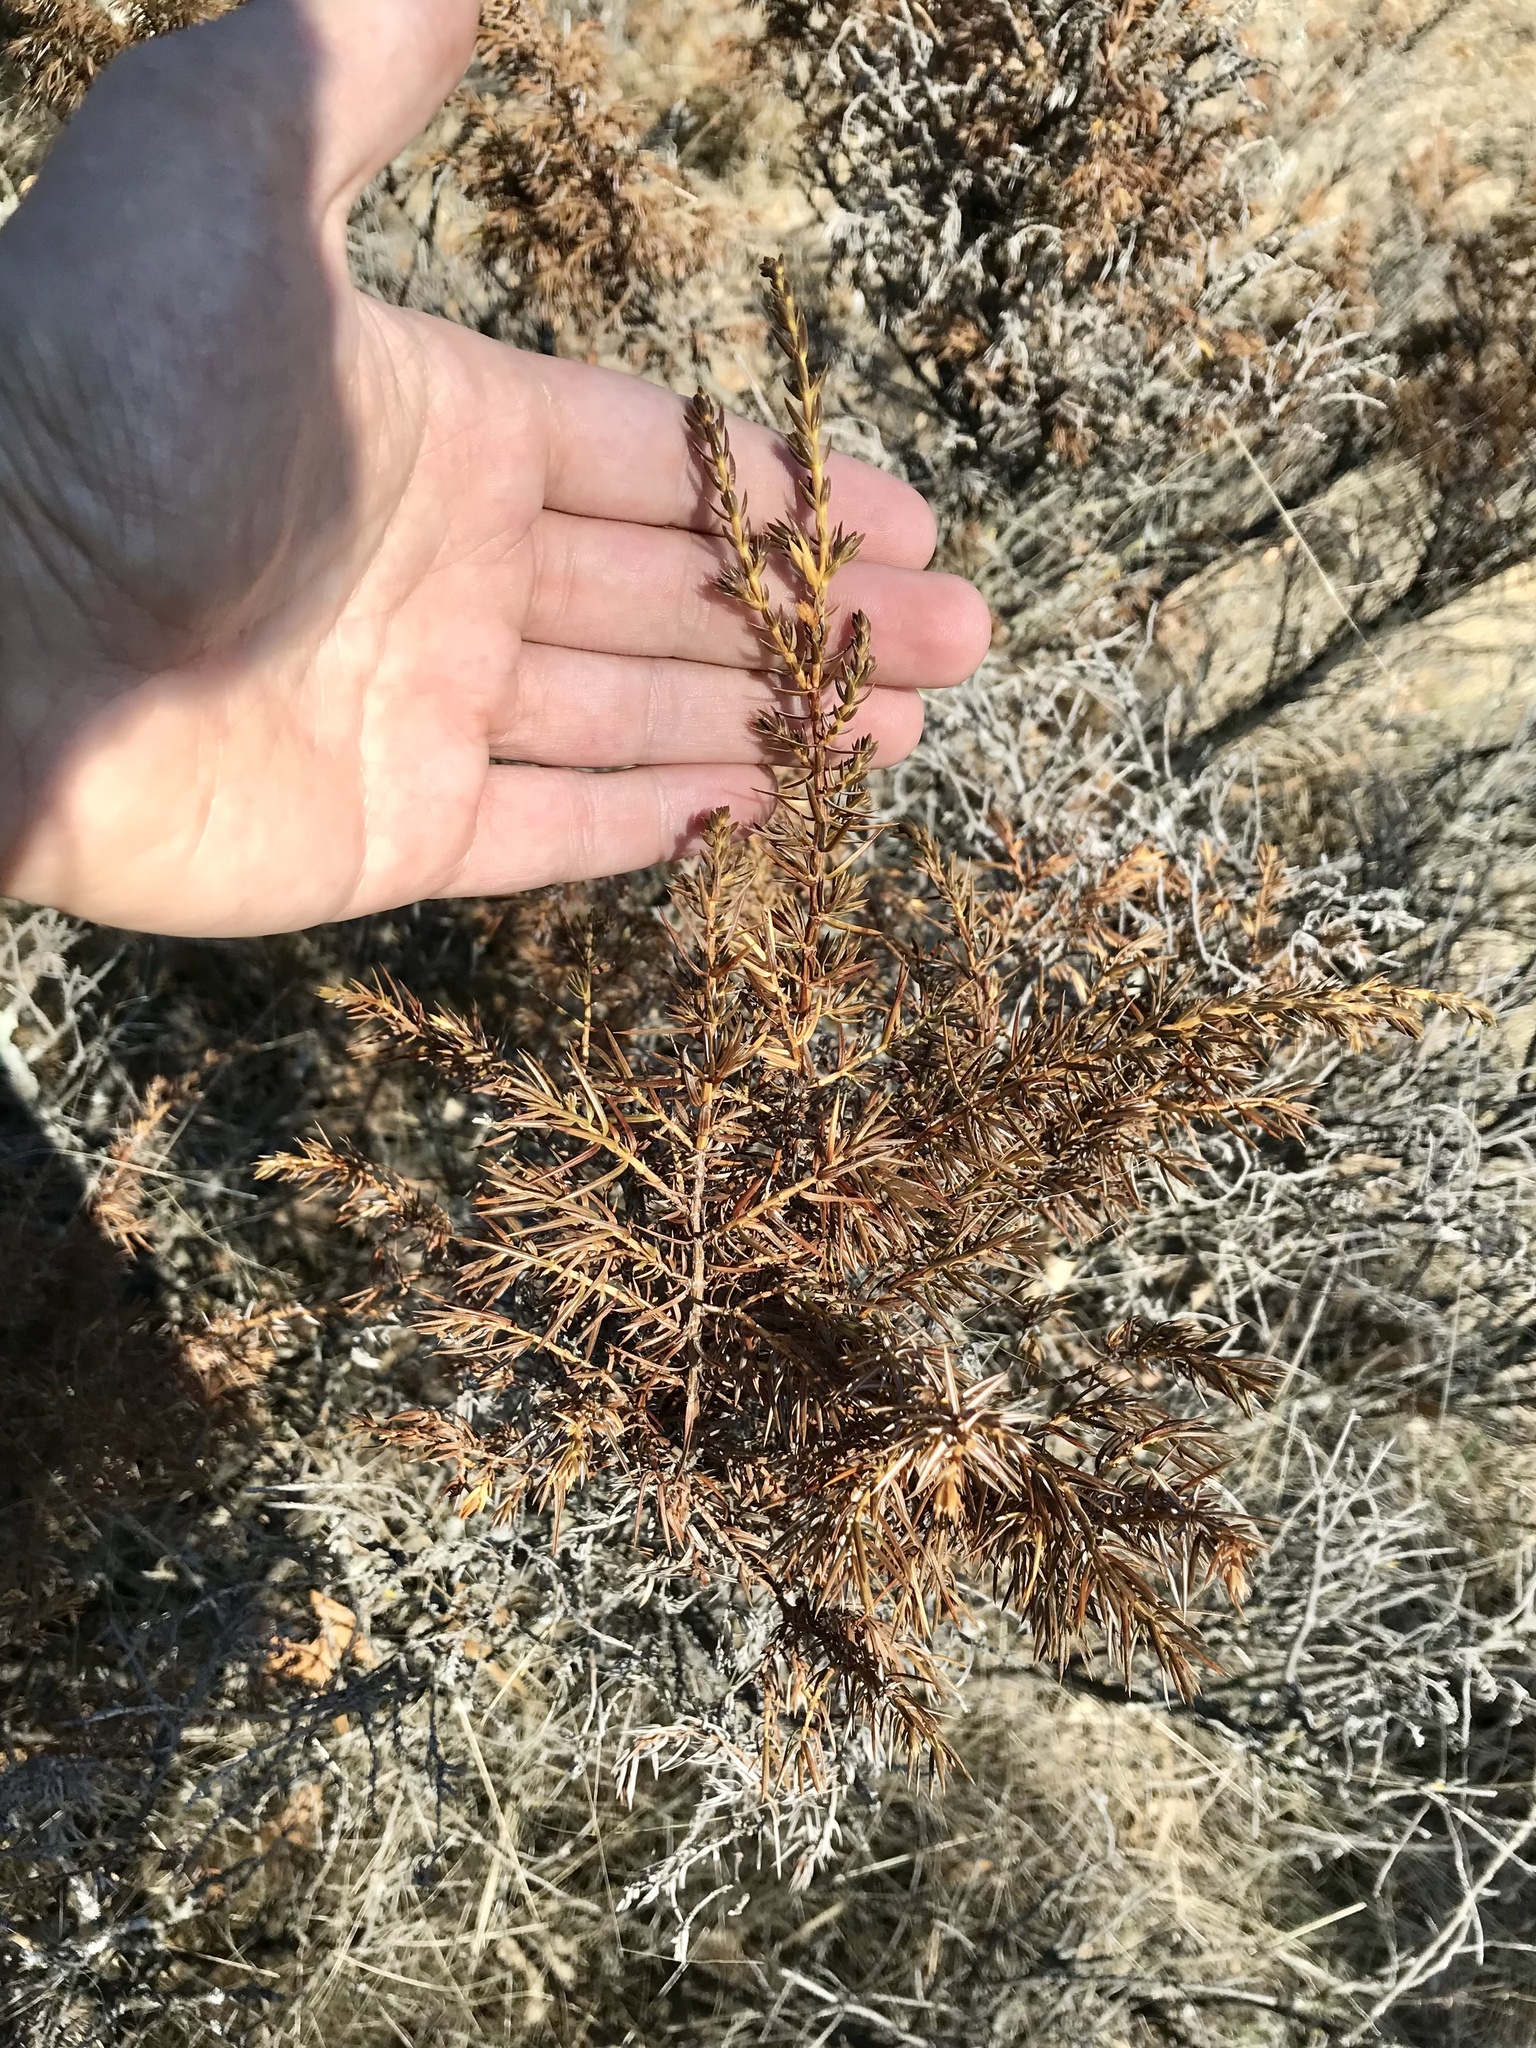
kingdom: Plantae
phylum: Tracheophyta
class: Pinopsida
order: Pinales
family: Cupressaceae
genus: Juniperus
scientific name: Juniperus communis
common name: Common juniper
